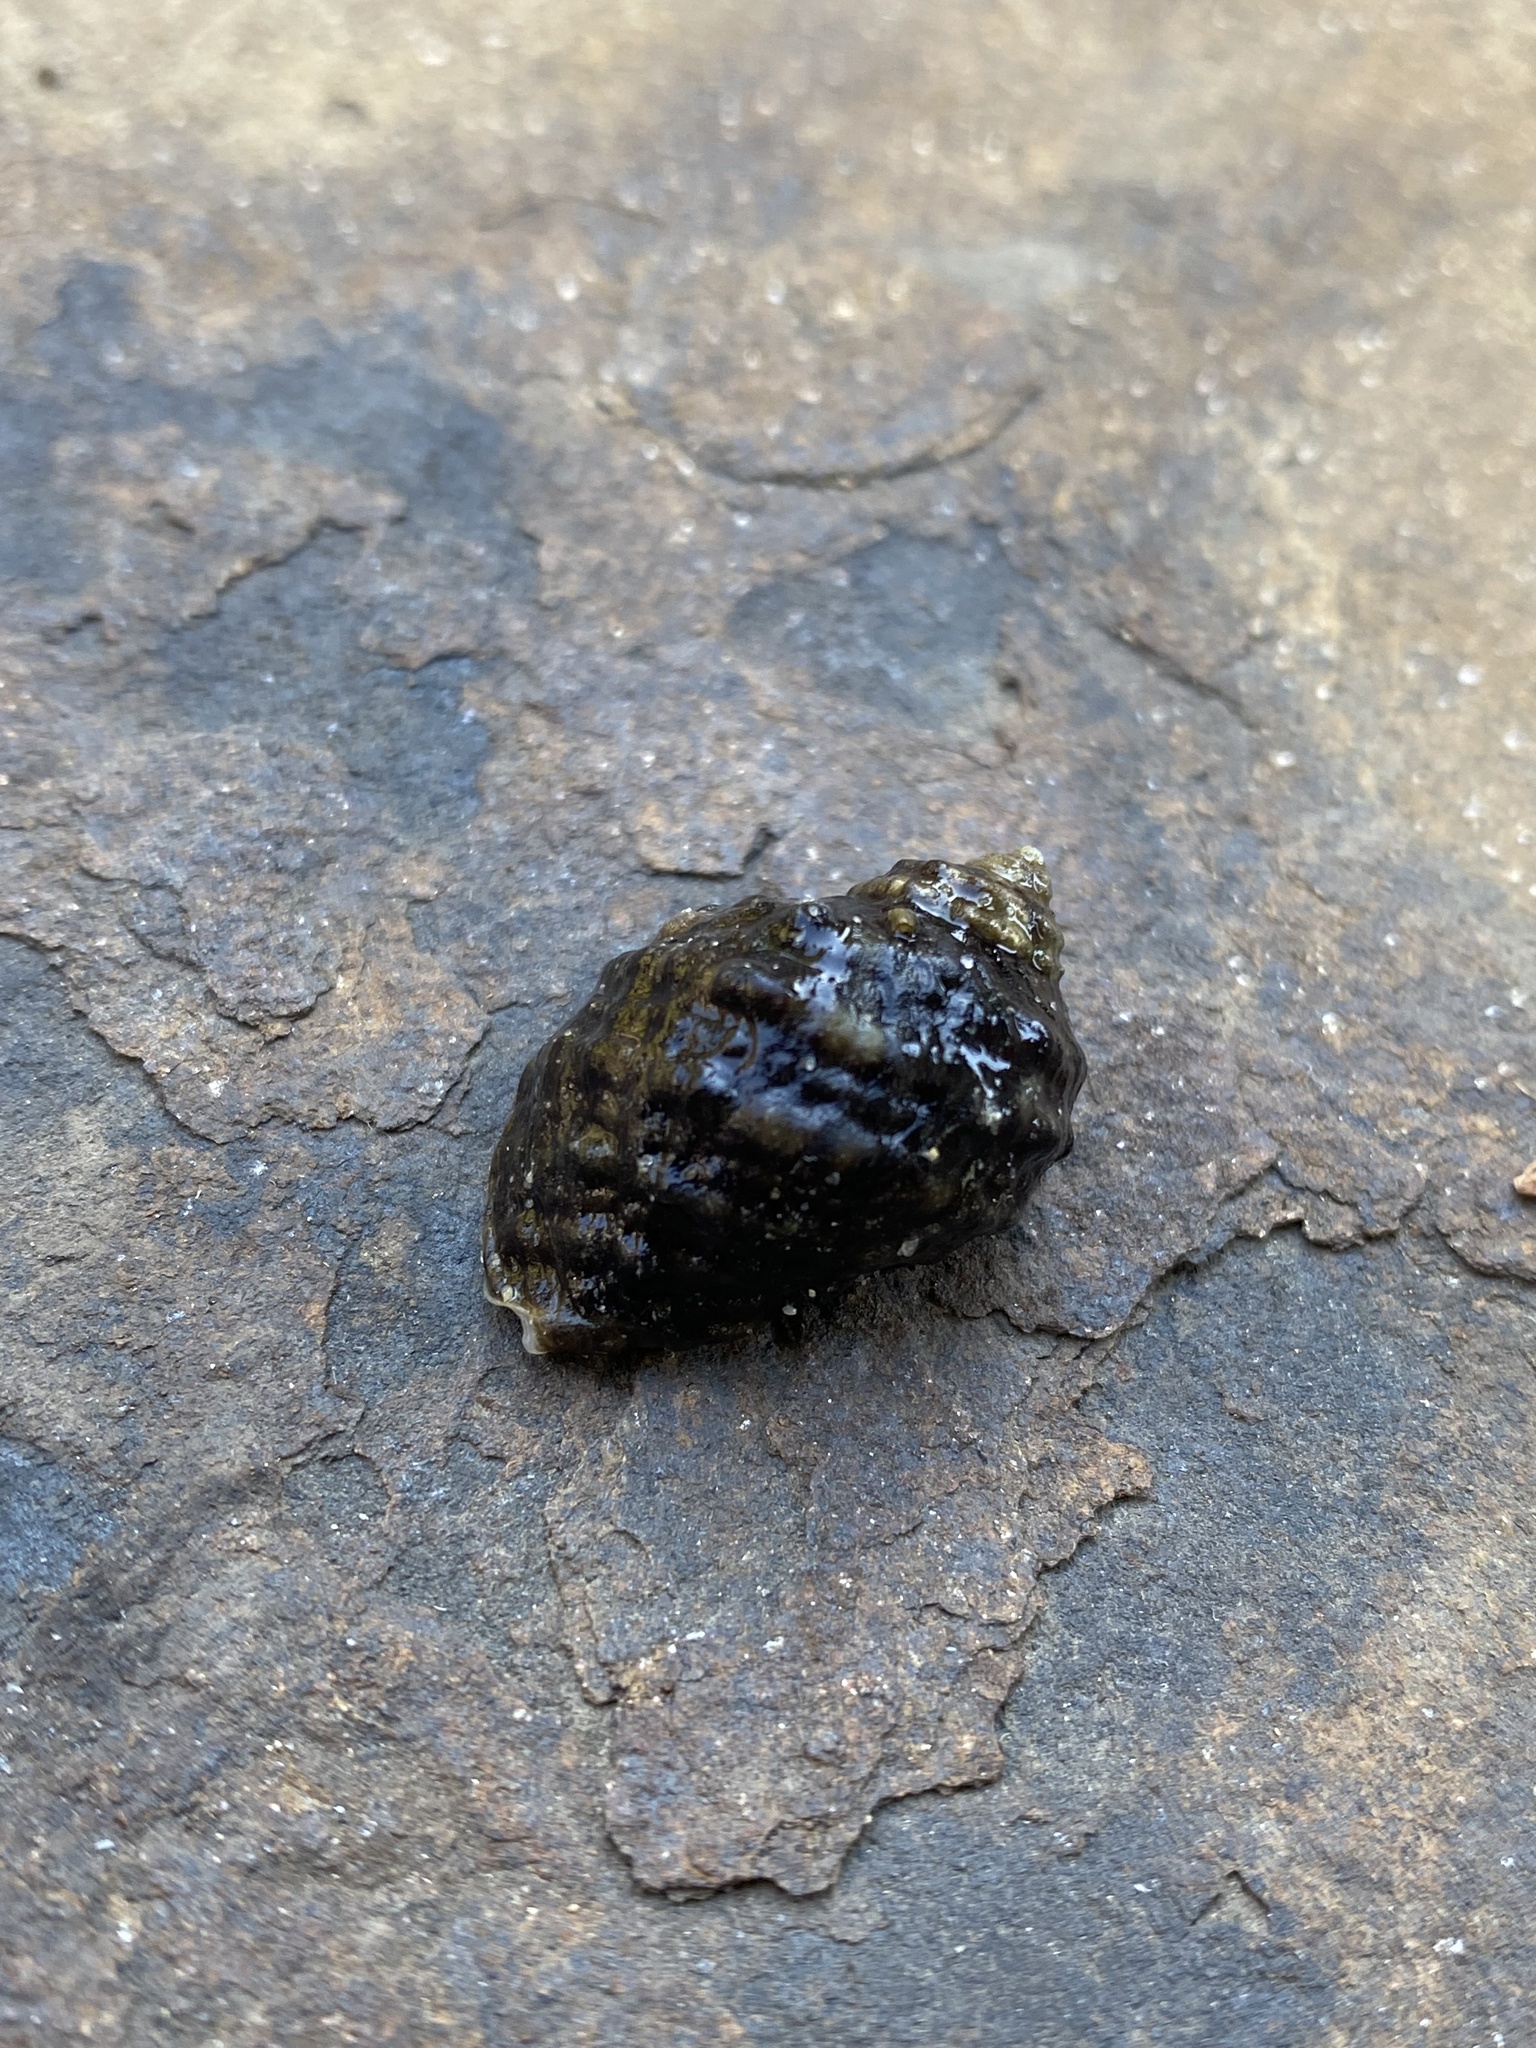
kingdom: Animalia
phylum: Mollusca
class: Gastropoda
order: Neogastropoda
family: Muricidae
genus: Nucella
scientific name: Nucella ostrina
